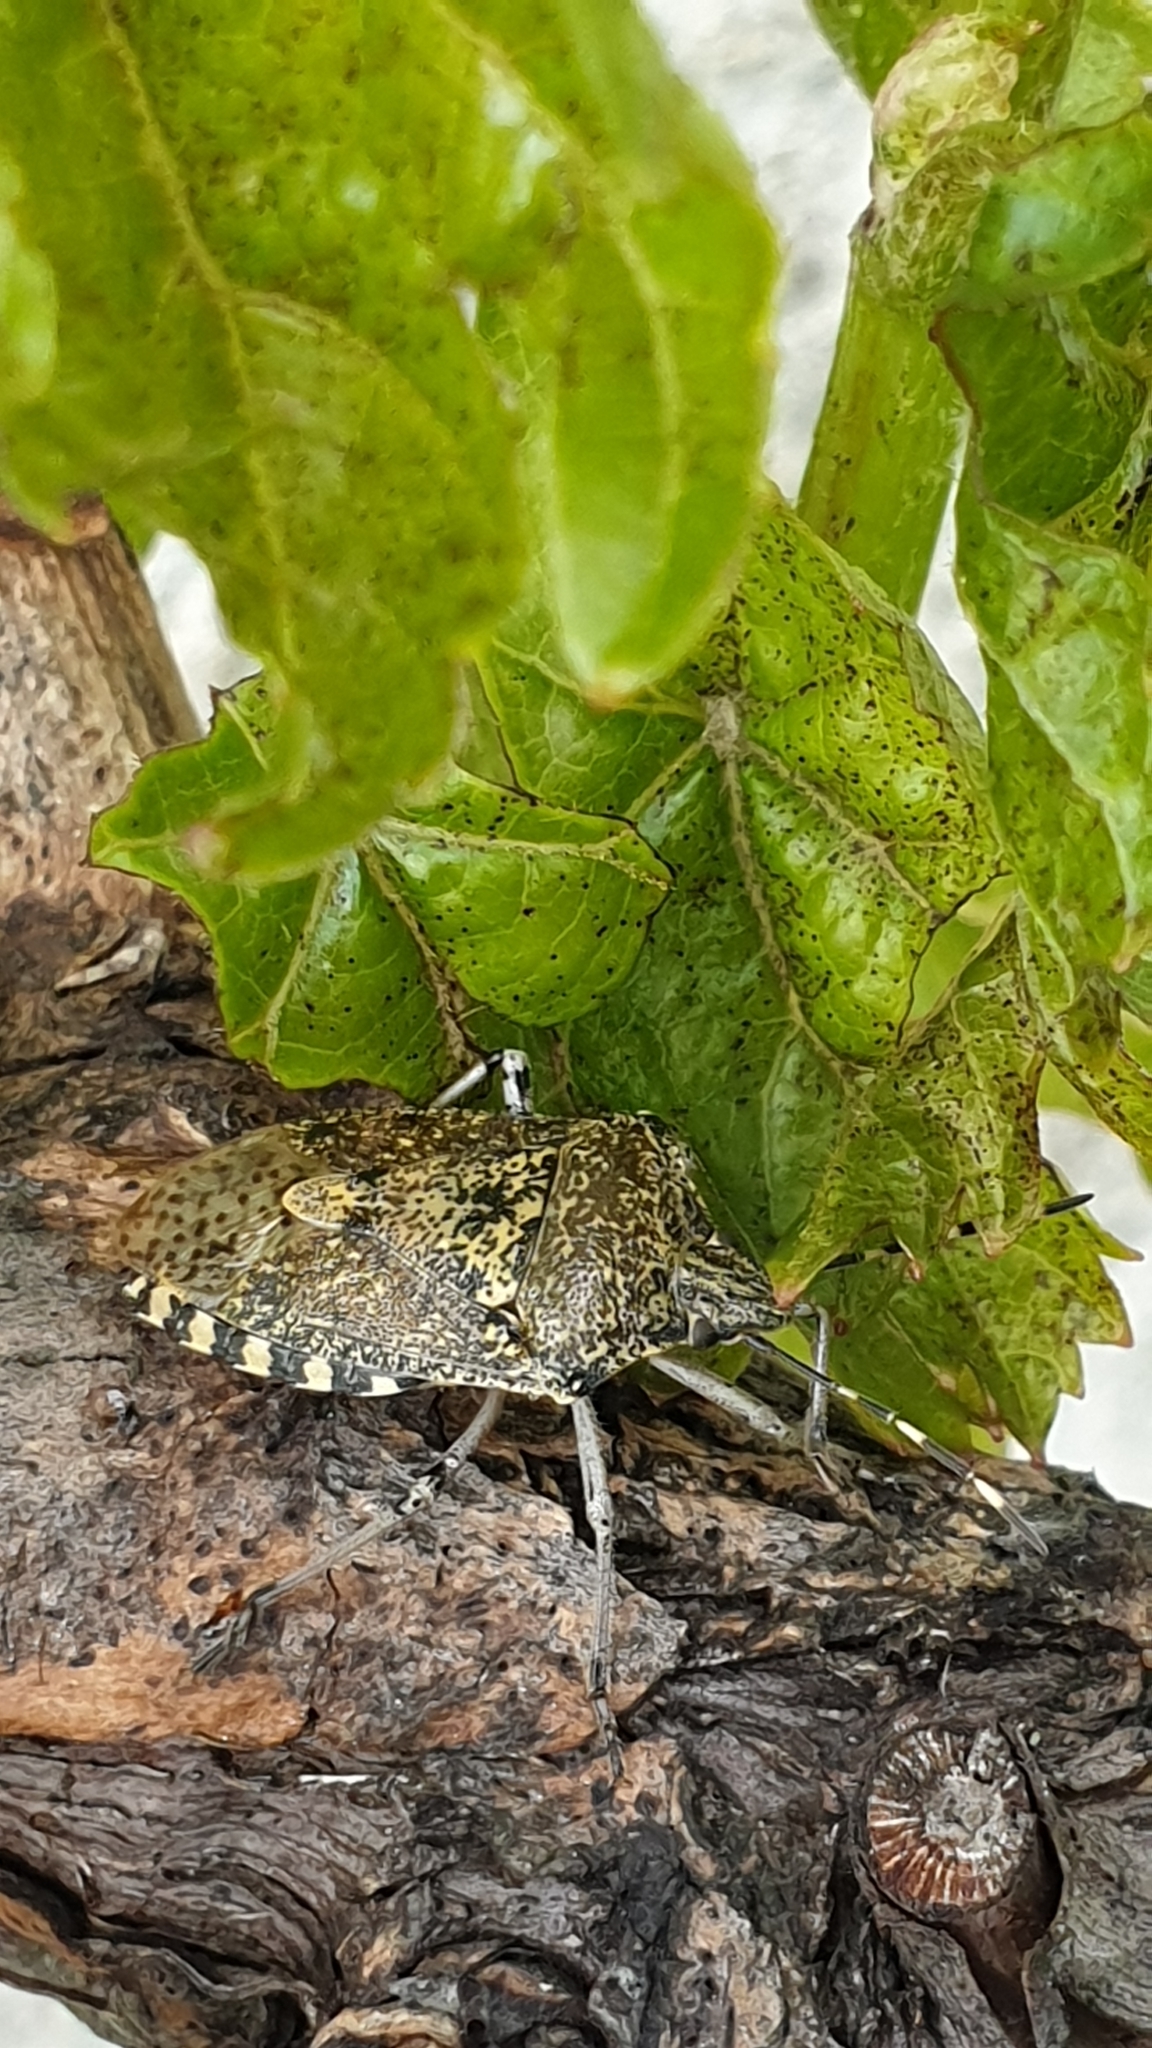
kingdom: Animalia
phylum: Arthropoda
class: Insecta
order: Hemiptera
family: Pentatomidae
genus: Rhaphigaster
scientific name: Rhaphigaster nebulosa
